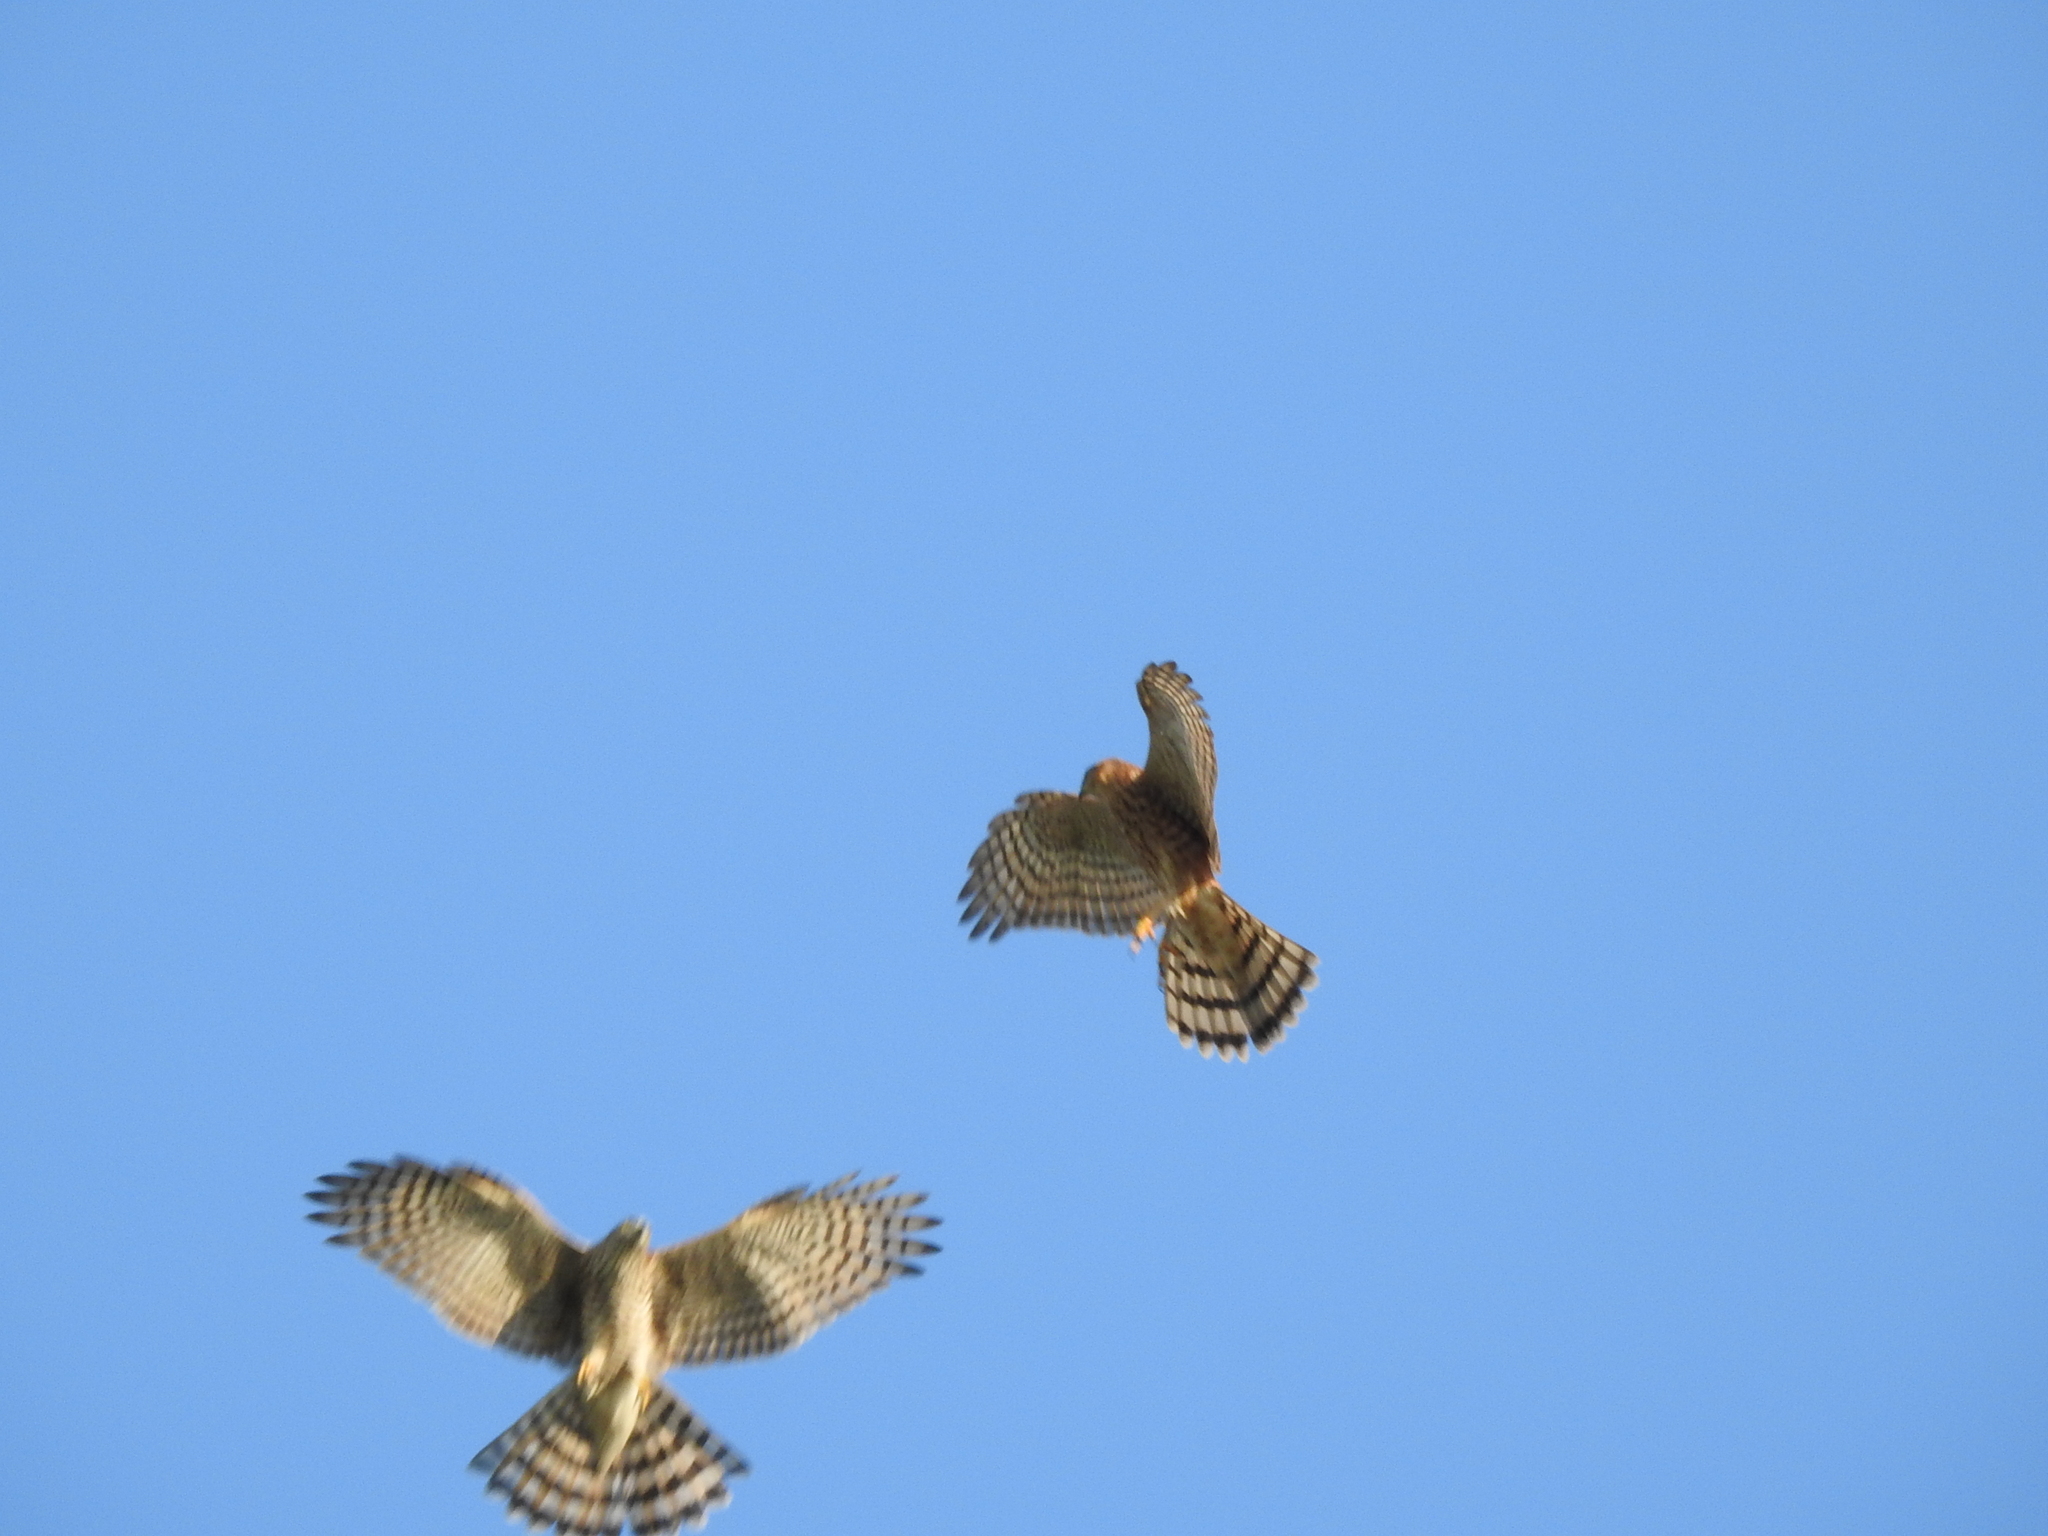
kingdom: Animalia
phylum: Chordata
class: Aves
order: Accipitriformes
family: Accipitridae
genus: Accipiter
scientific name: Accipiter nisus
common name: Eurasian sparrowhawk
